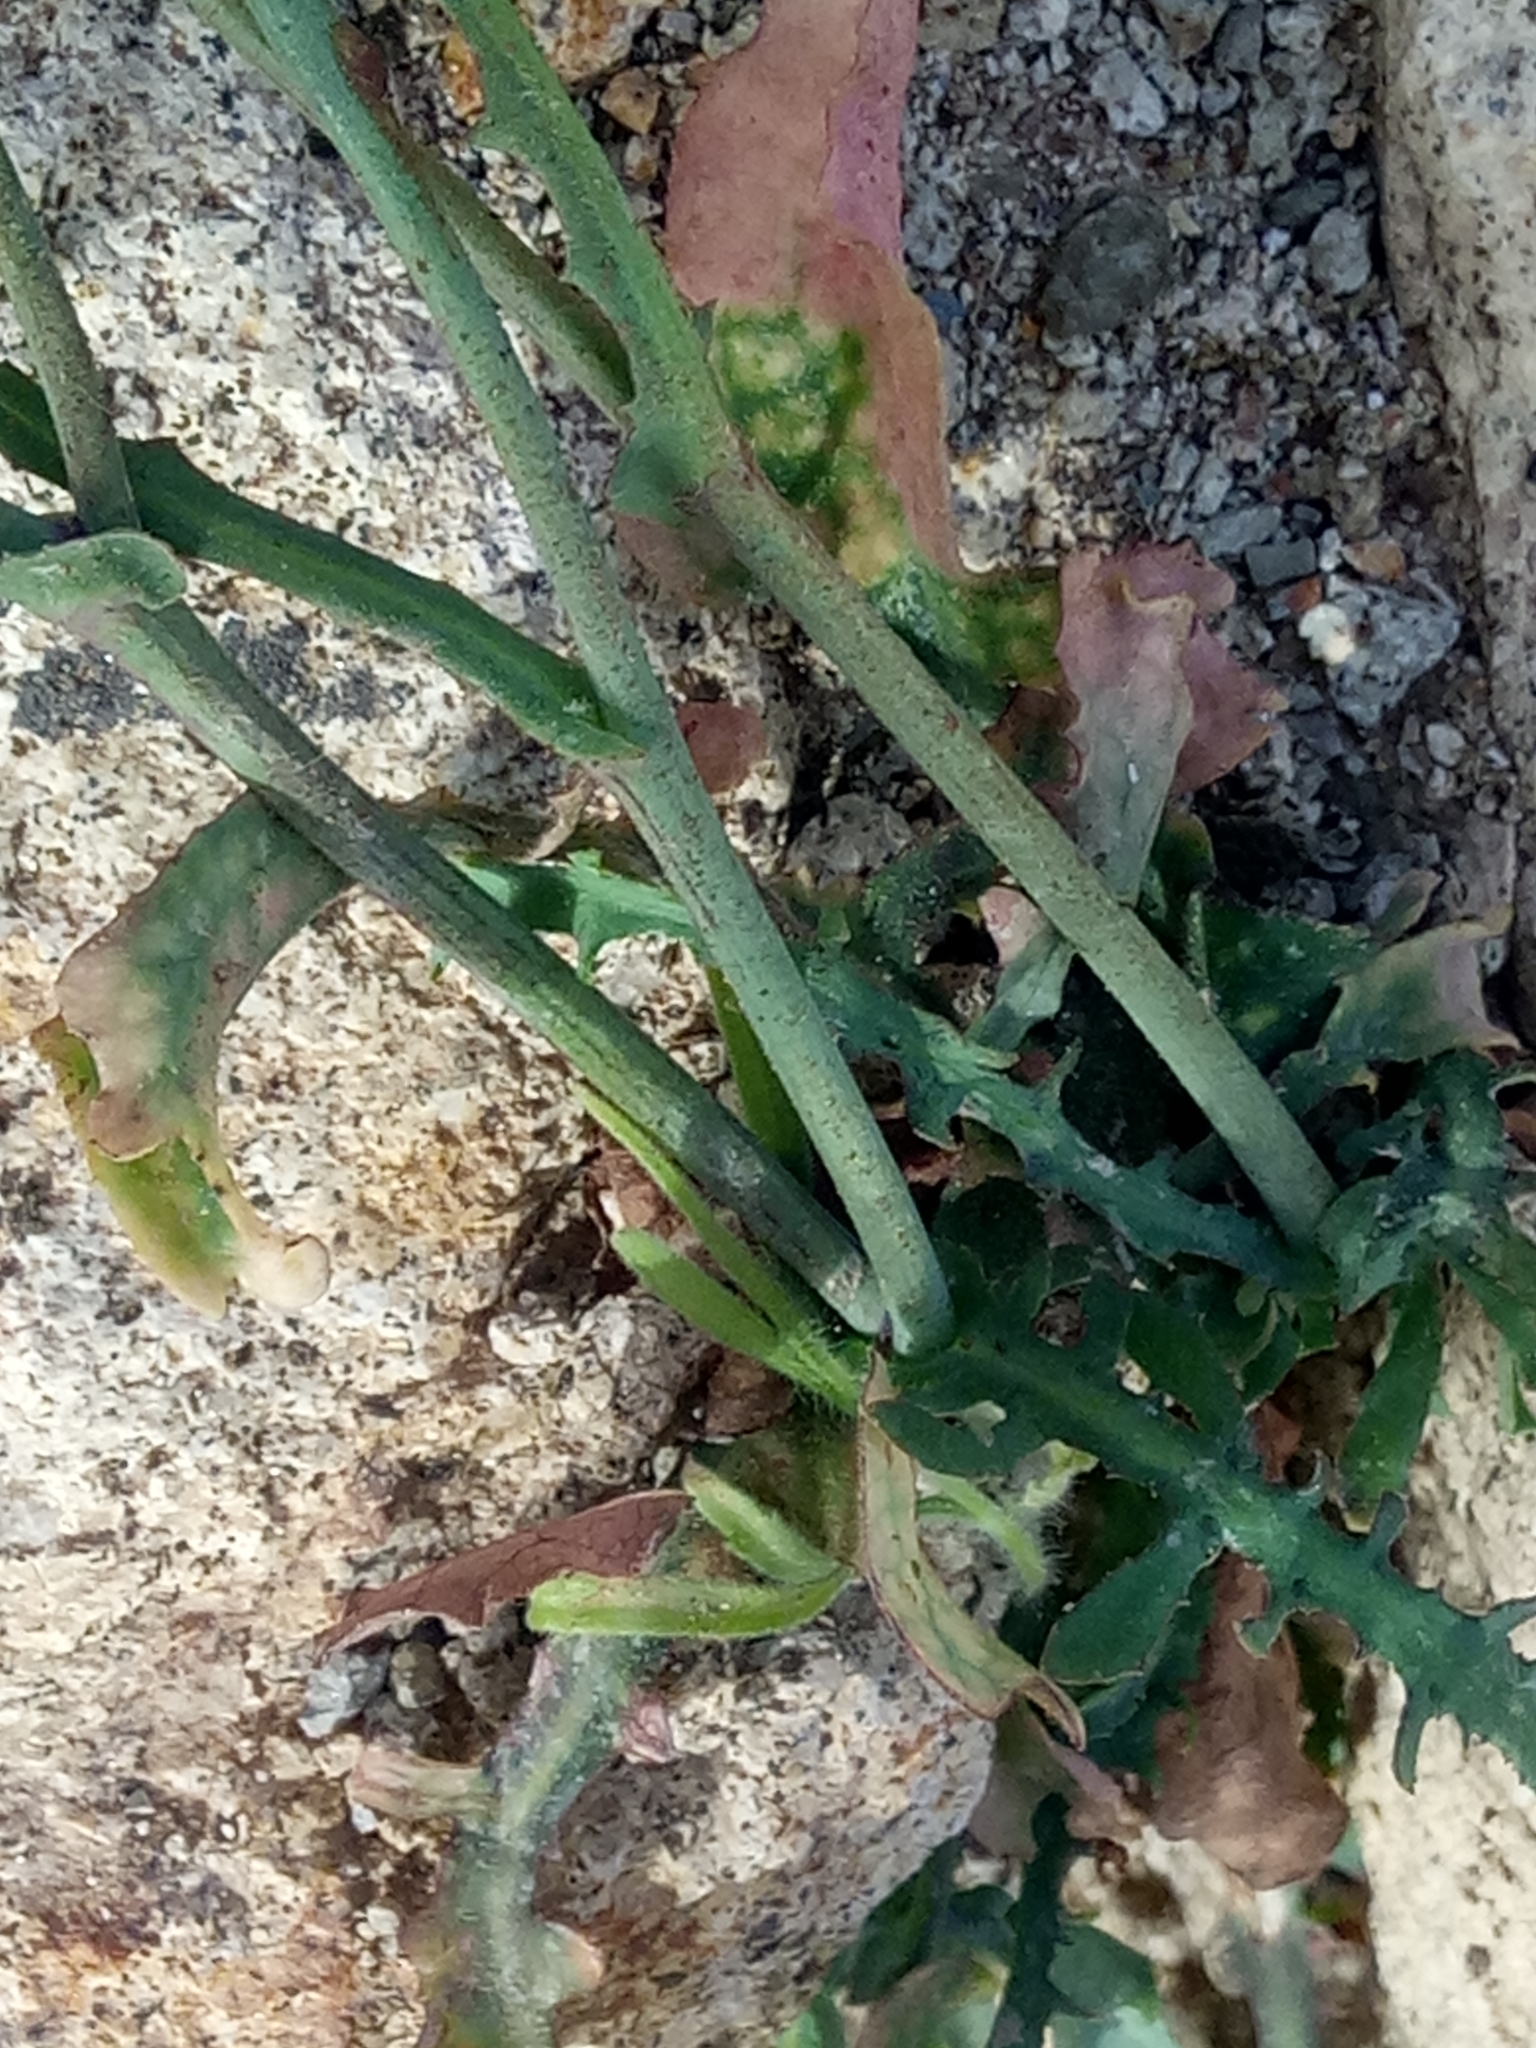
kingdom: Plantae
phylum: Tracheophyta
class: Magnoliopsida
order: Asterales
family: Asteraceae
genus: Reichardia
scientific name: Reichardia picroides
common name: Common brighteyes
